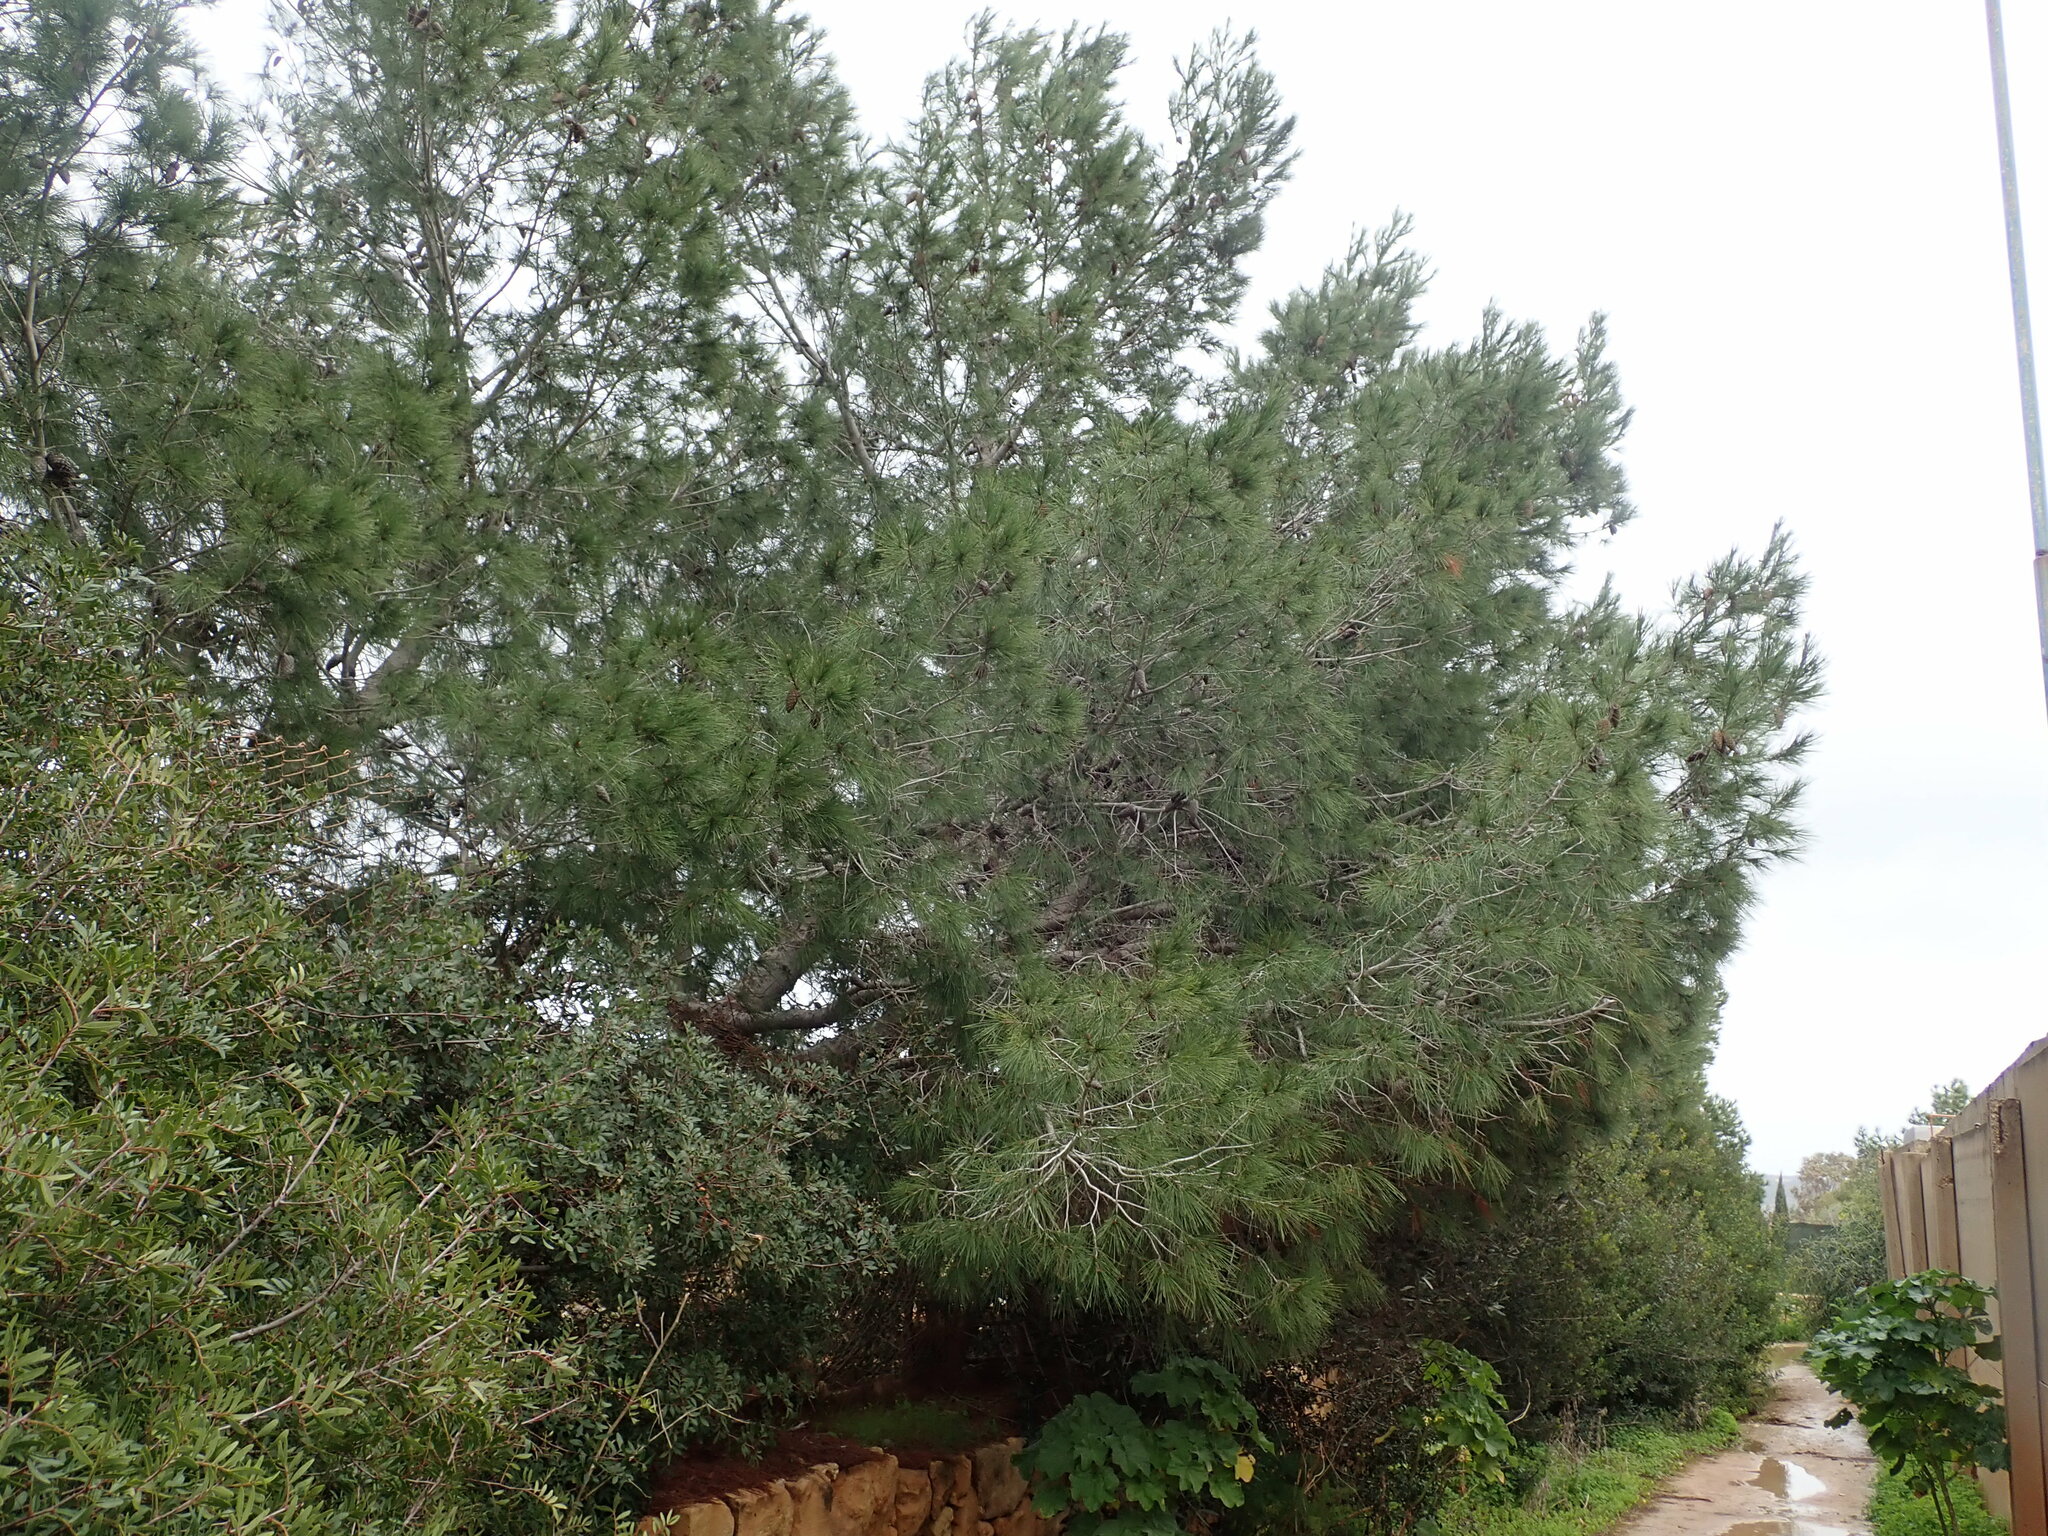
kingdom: Plantae
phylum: Tracheophyta
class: Pinopsida
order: Pinales
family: Pinaceae
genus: Pinus
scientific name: Pinus halepensis
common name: Aleppo pine
